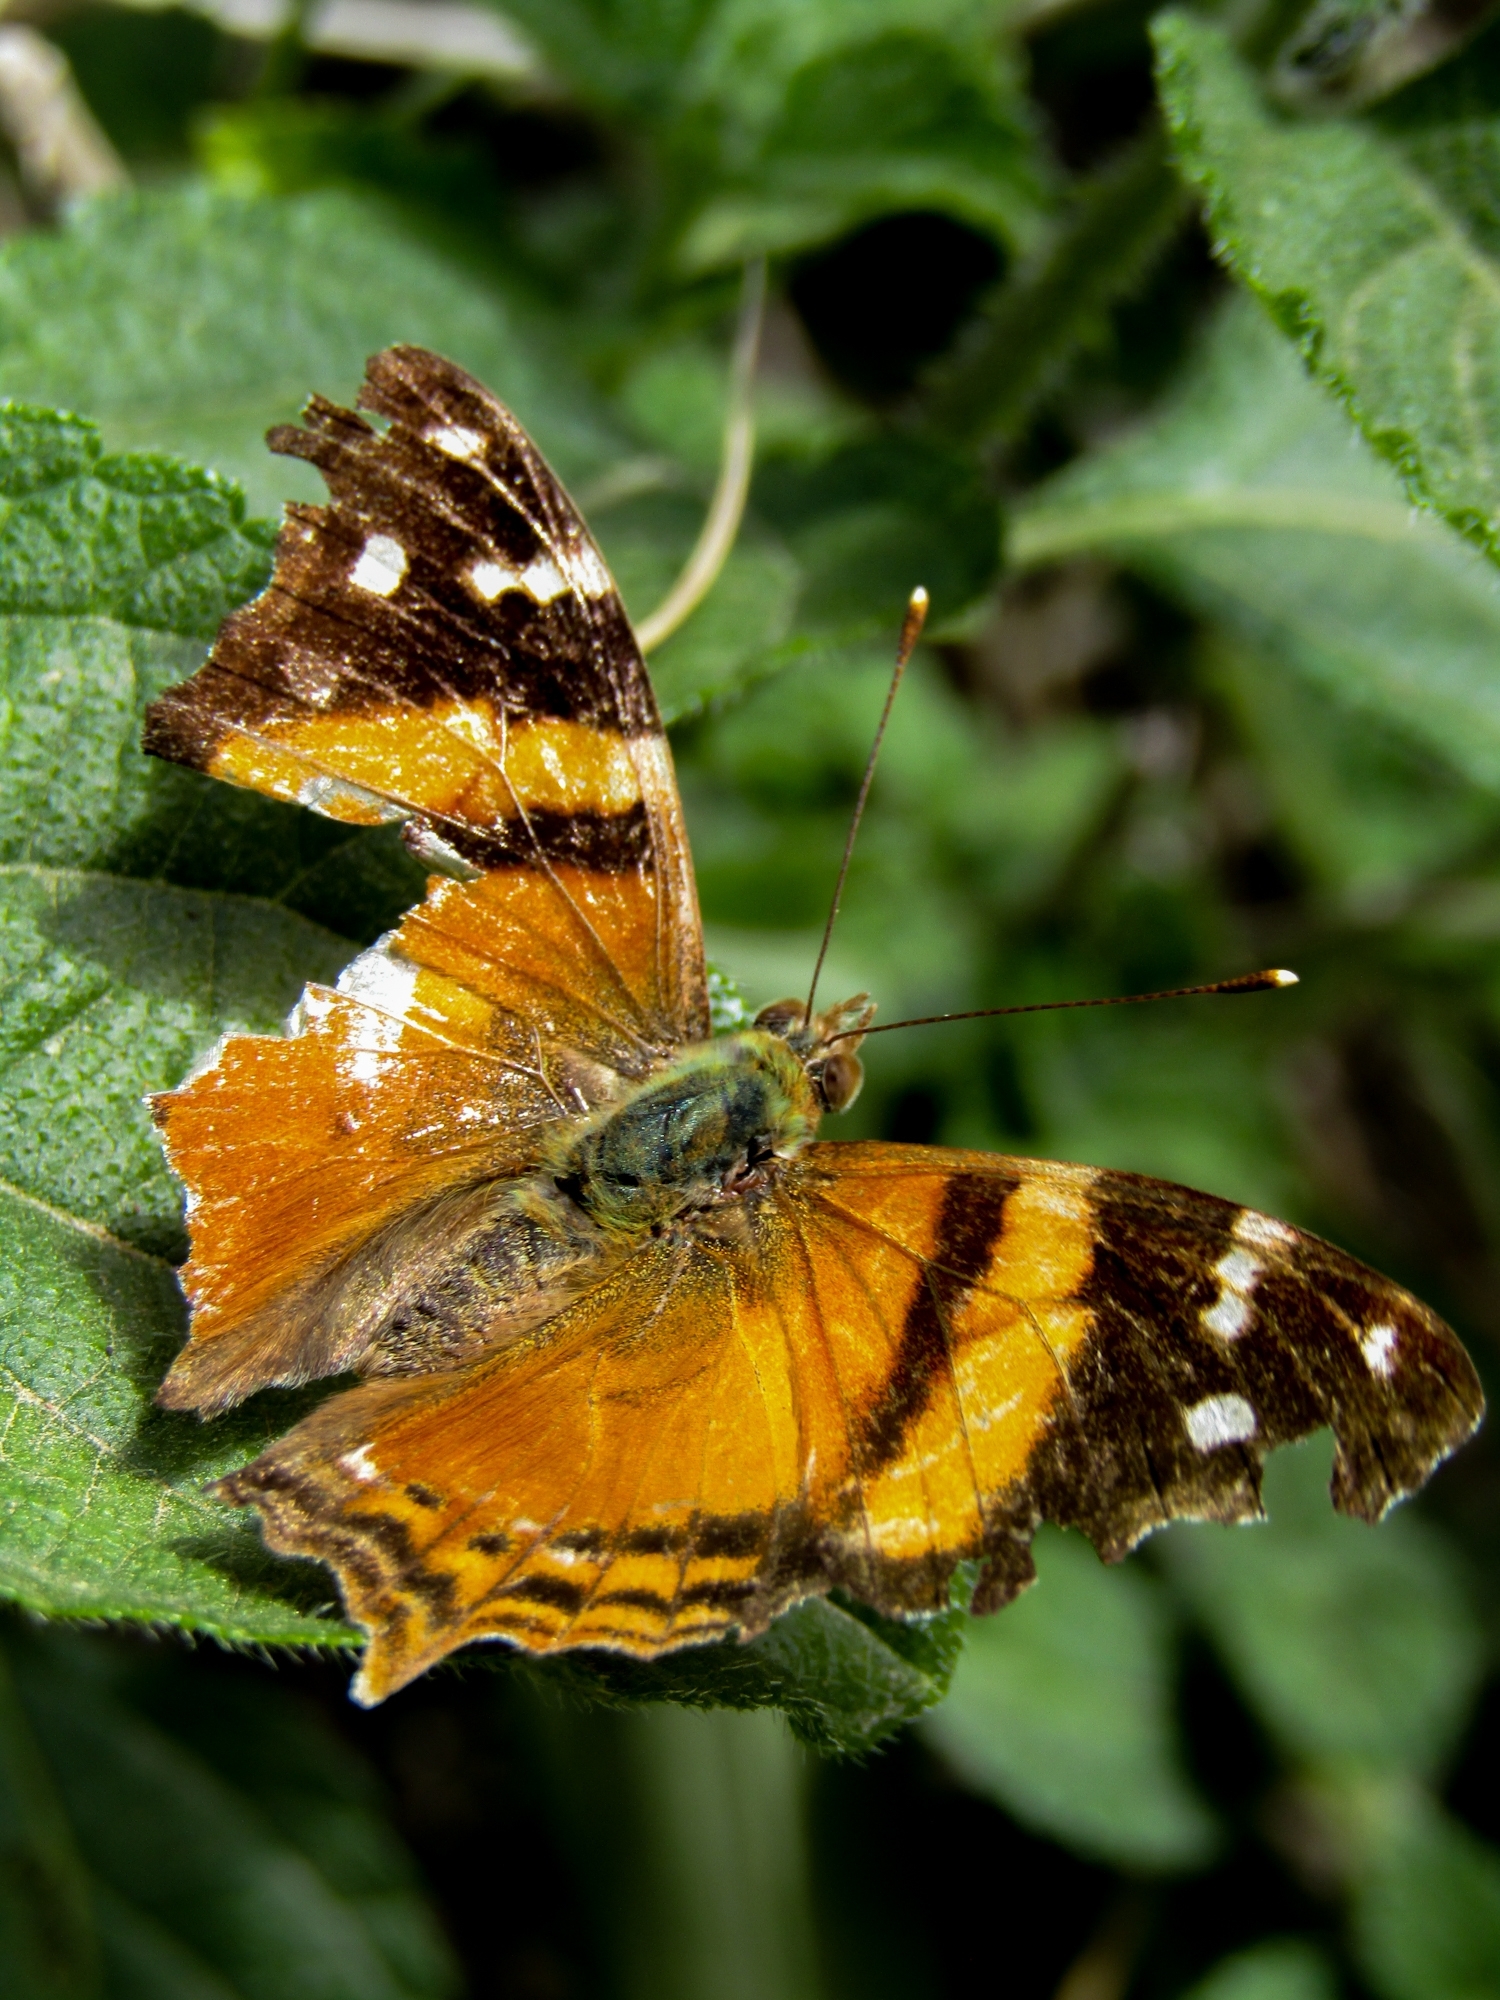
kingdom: Animalia
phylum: Arthropoda
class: Insecta
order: Lepidoptera
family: Nymphalidae
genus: Hypanartia
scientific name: Hypanartia bella
